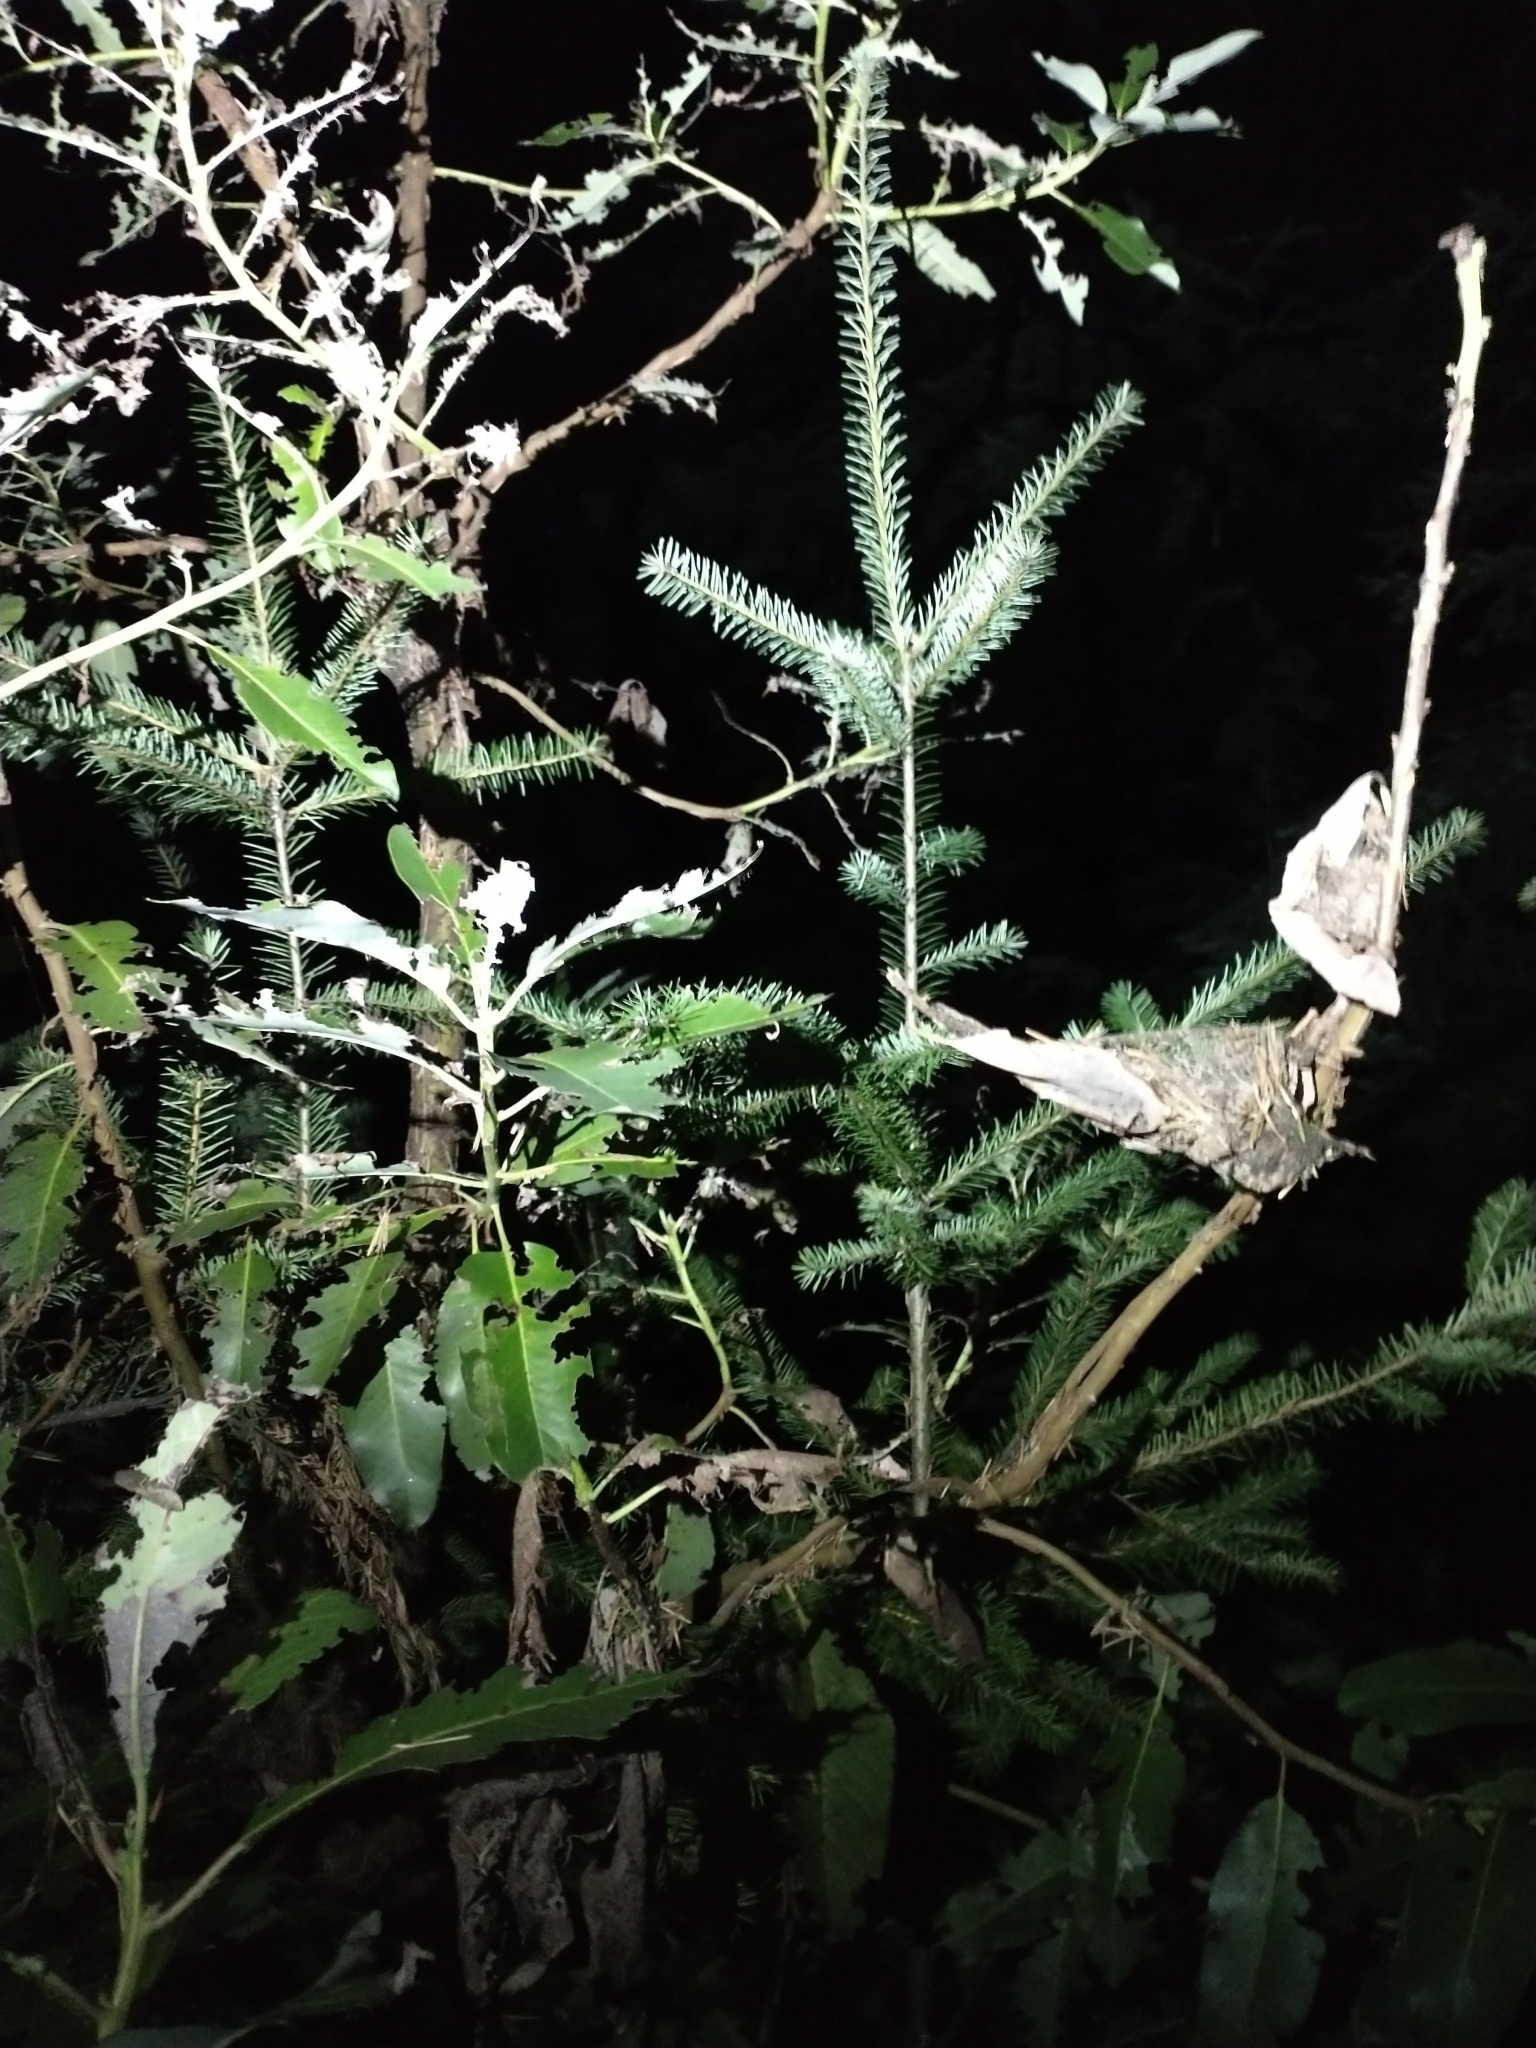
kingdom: Plantae
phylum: Tracheophyta
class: Magnoliopsida
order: Ericales
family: Ericaceae
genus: Arbutus
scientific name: Arbutus menziesii
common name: Pacific madrone
